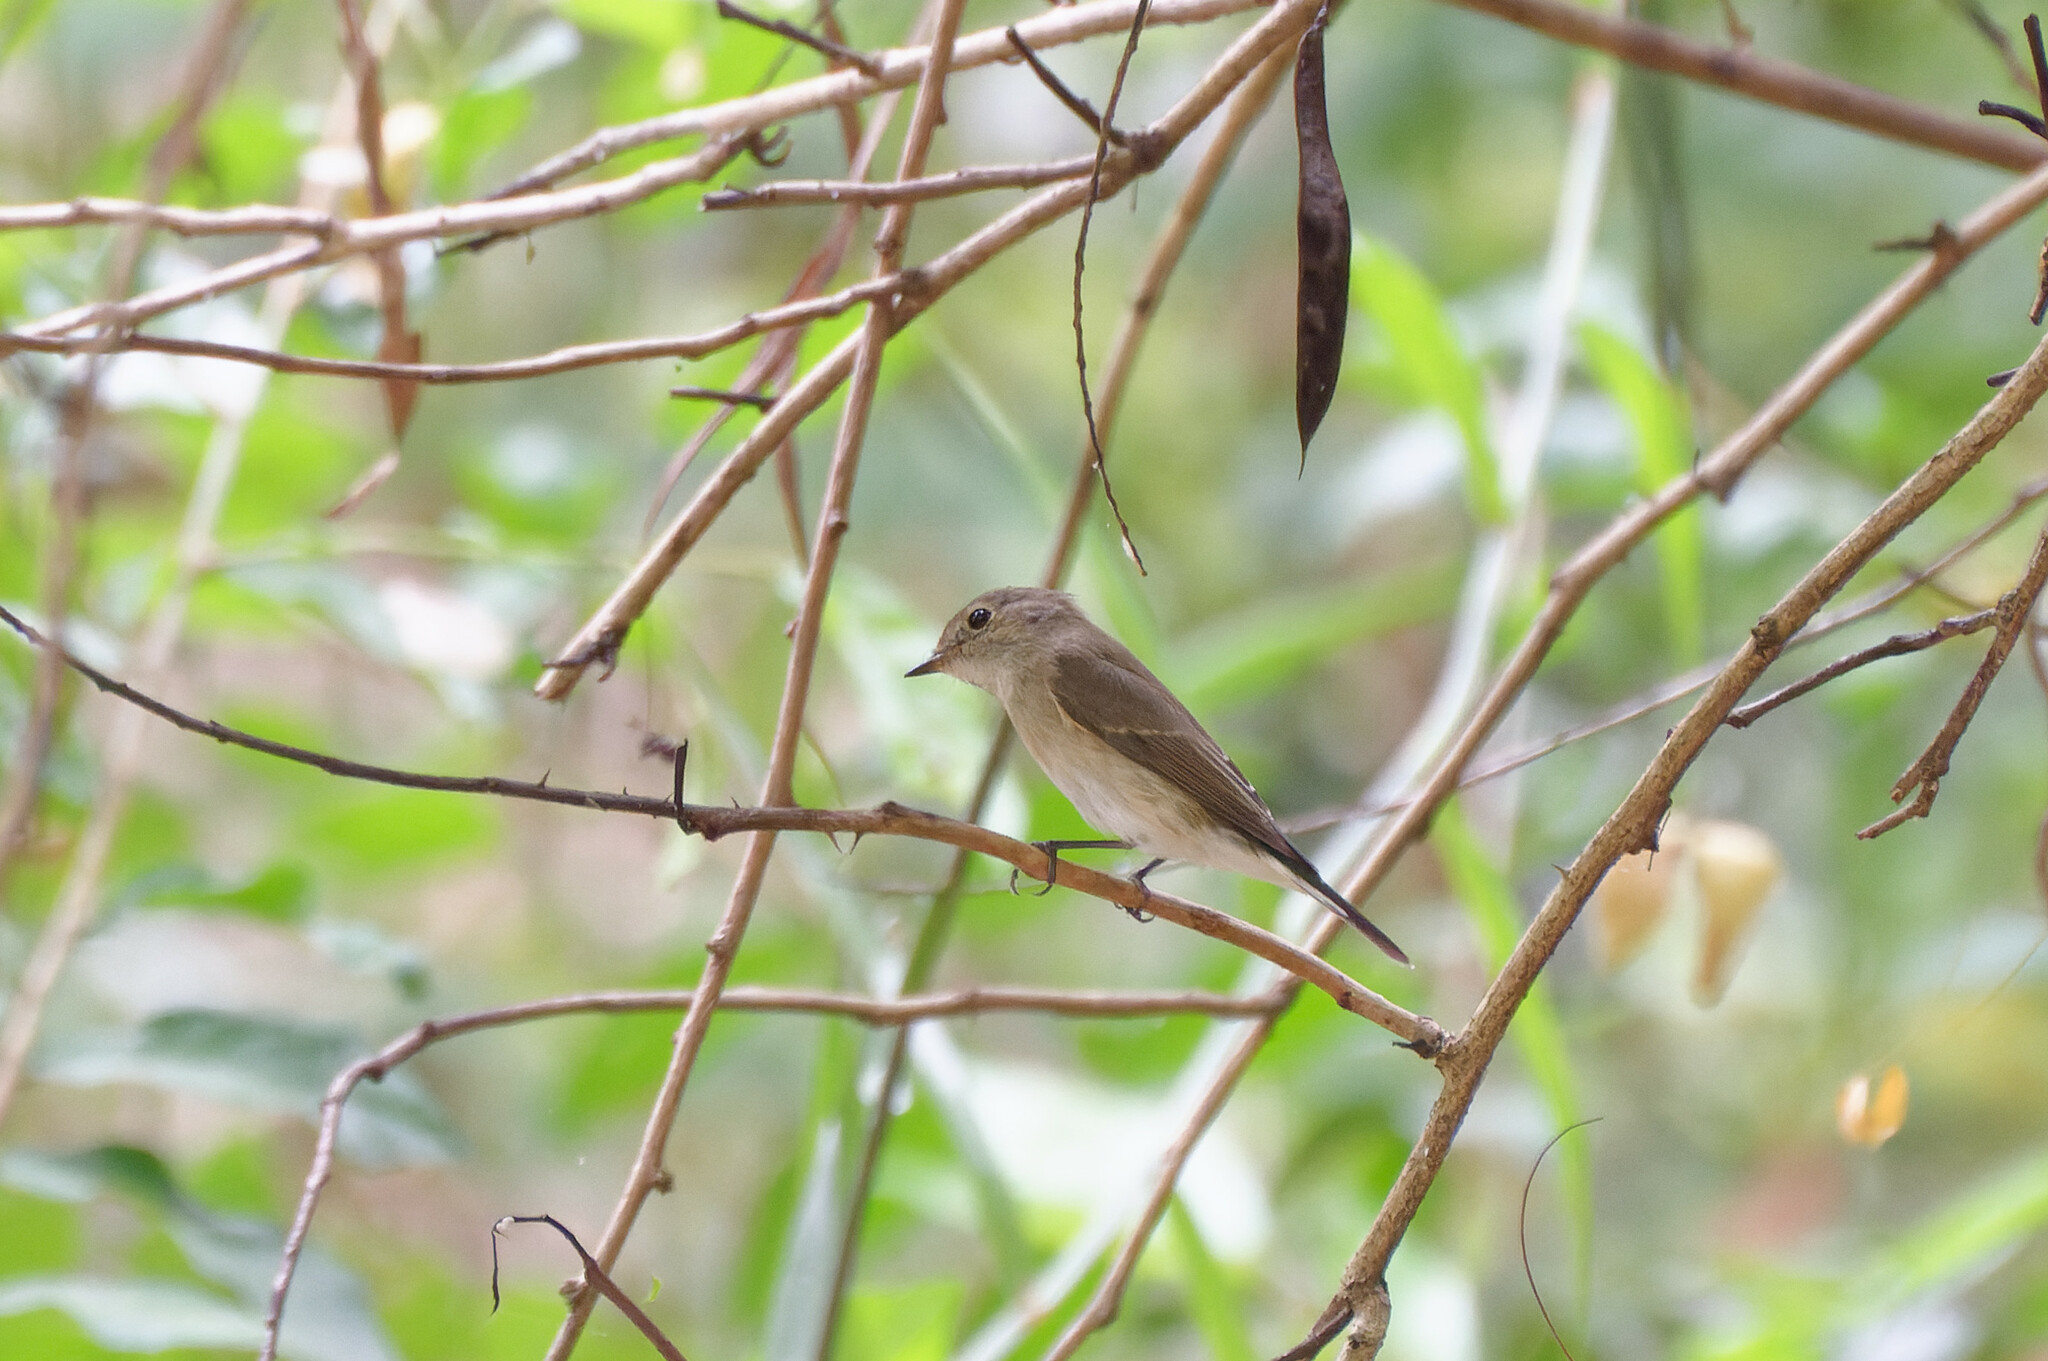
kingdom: Animalia
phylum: Chordata
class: Aves
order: Passeriformes
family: Muscicapidae
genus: Muscicapa
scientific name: Muscicapa latirostris
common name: Asian brown flycatcher
